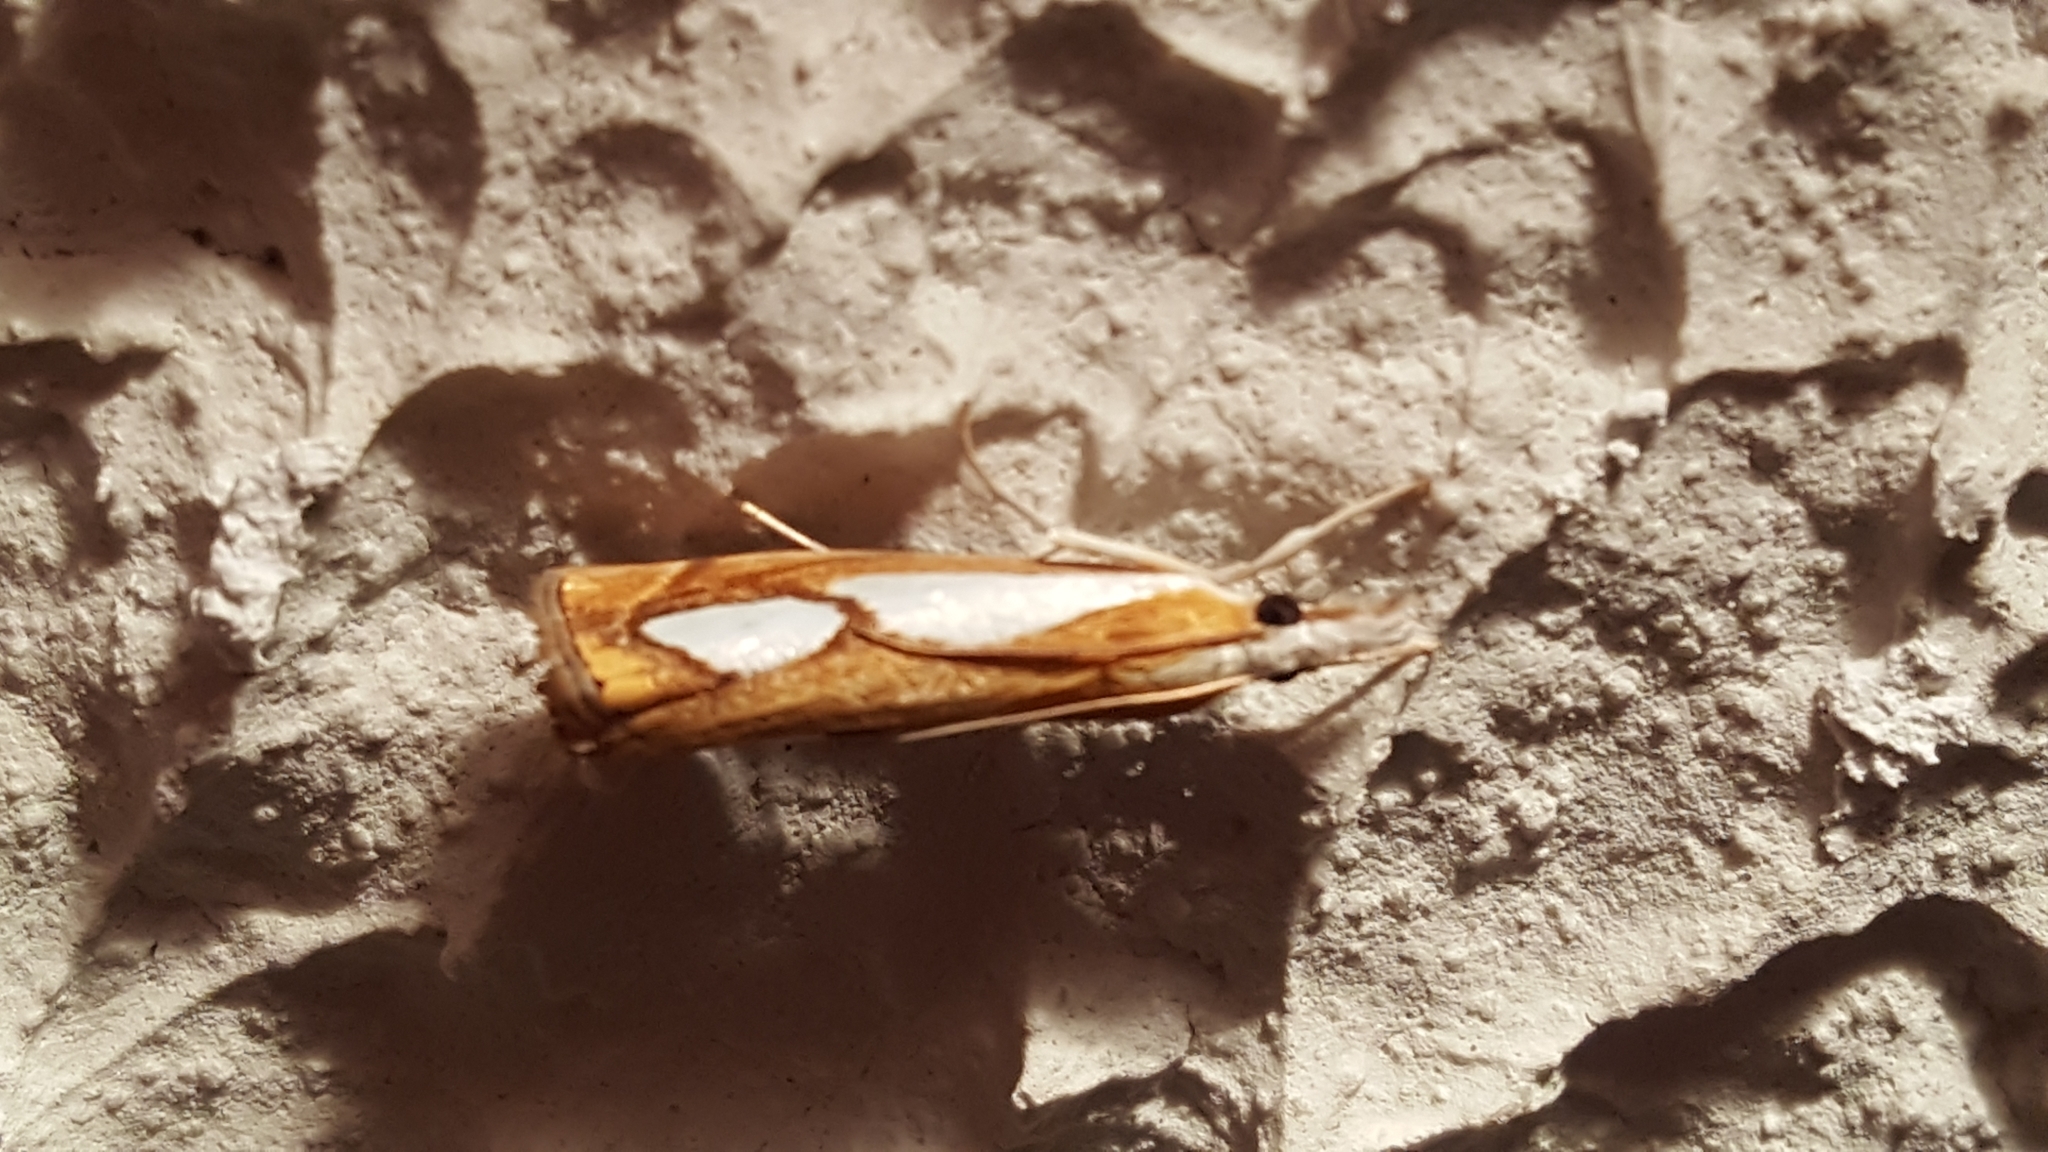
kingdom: Animalia
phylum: Arthropoda
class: Insecta
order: Lepidoptera
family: Crambidae
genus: Catoptria
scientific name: Catoptria pinella
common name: Pearl grass-veneer
